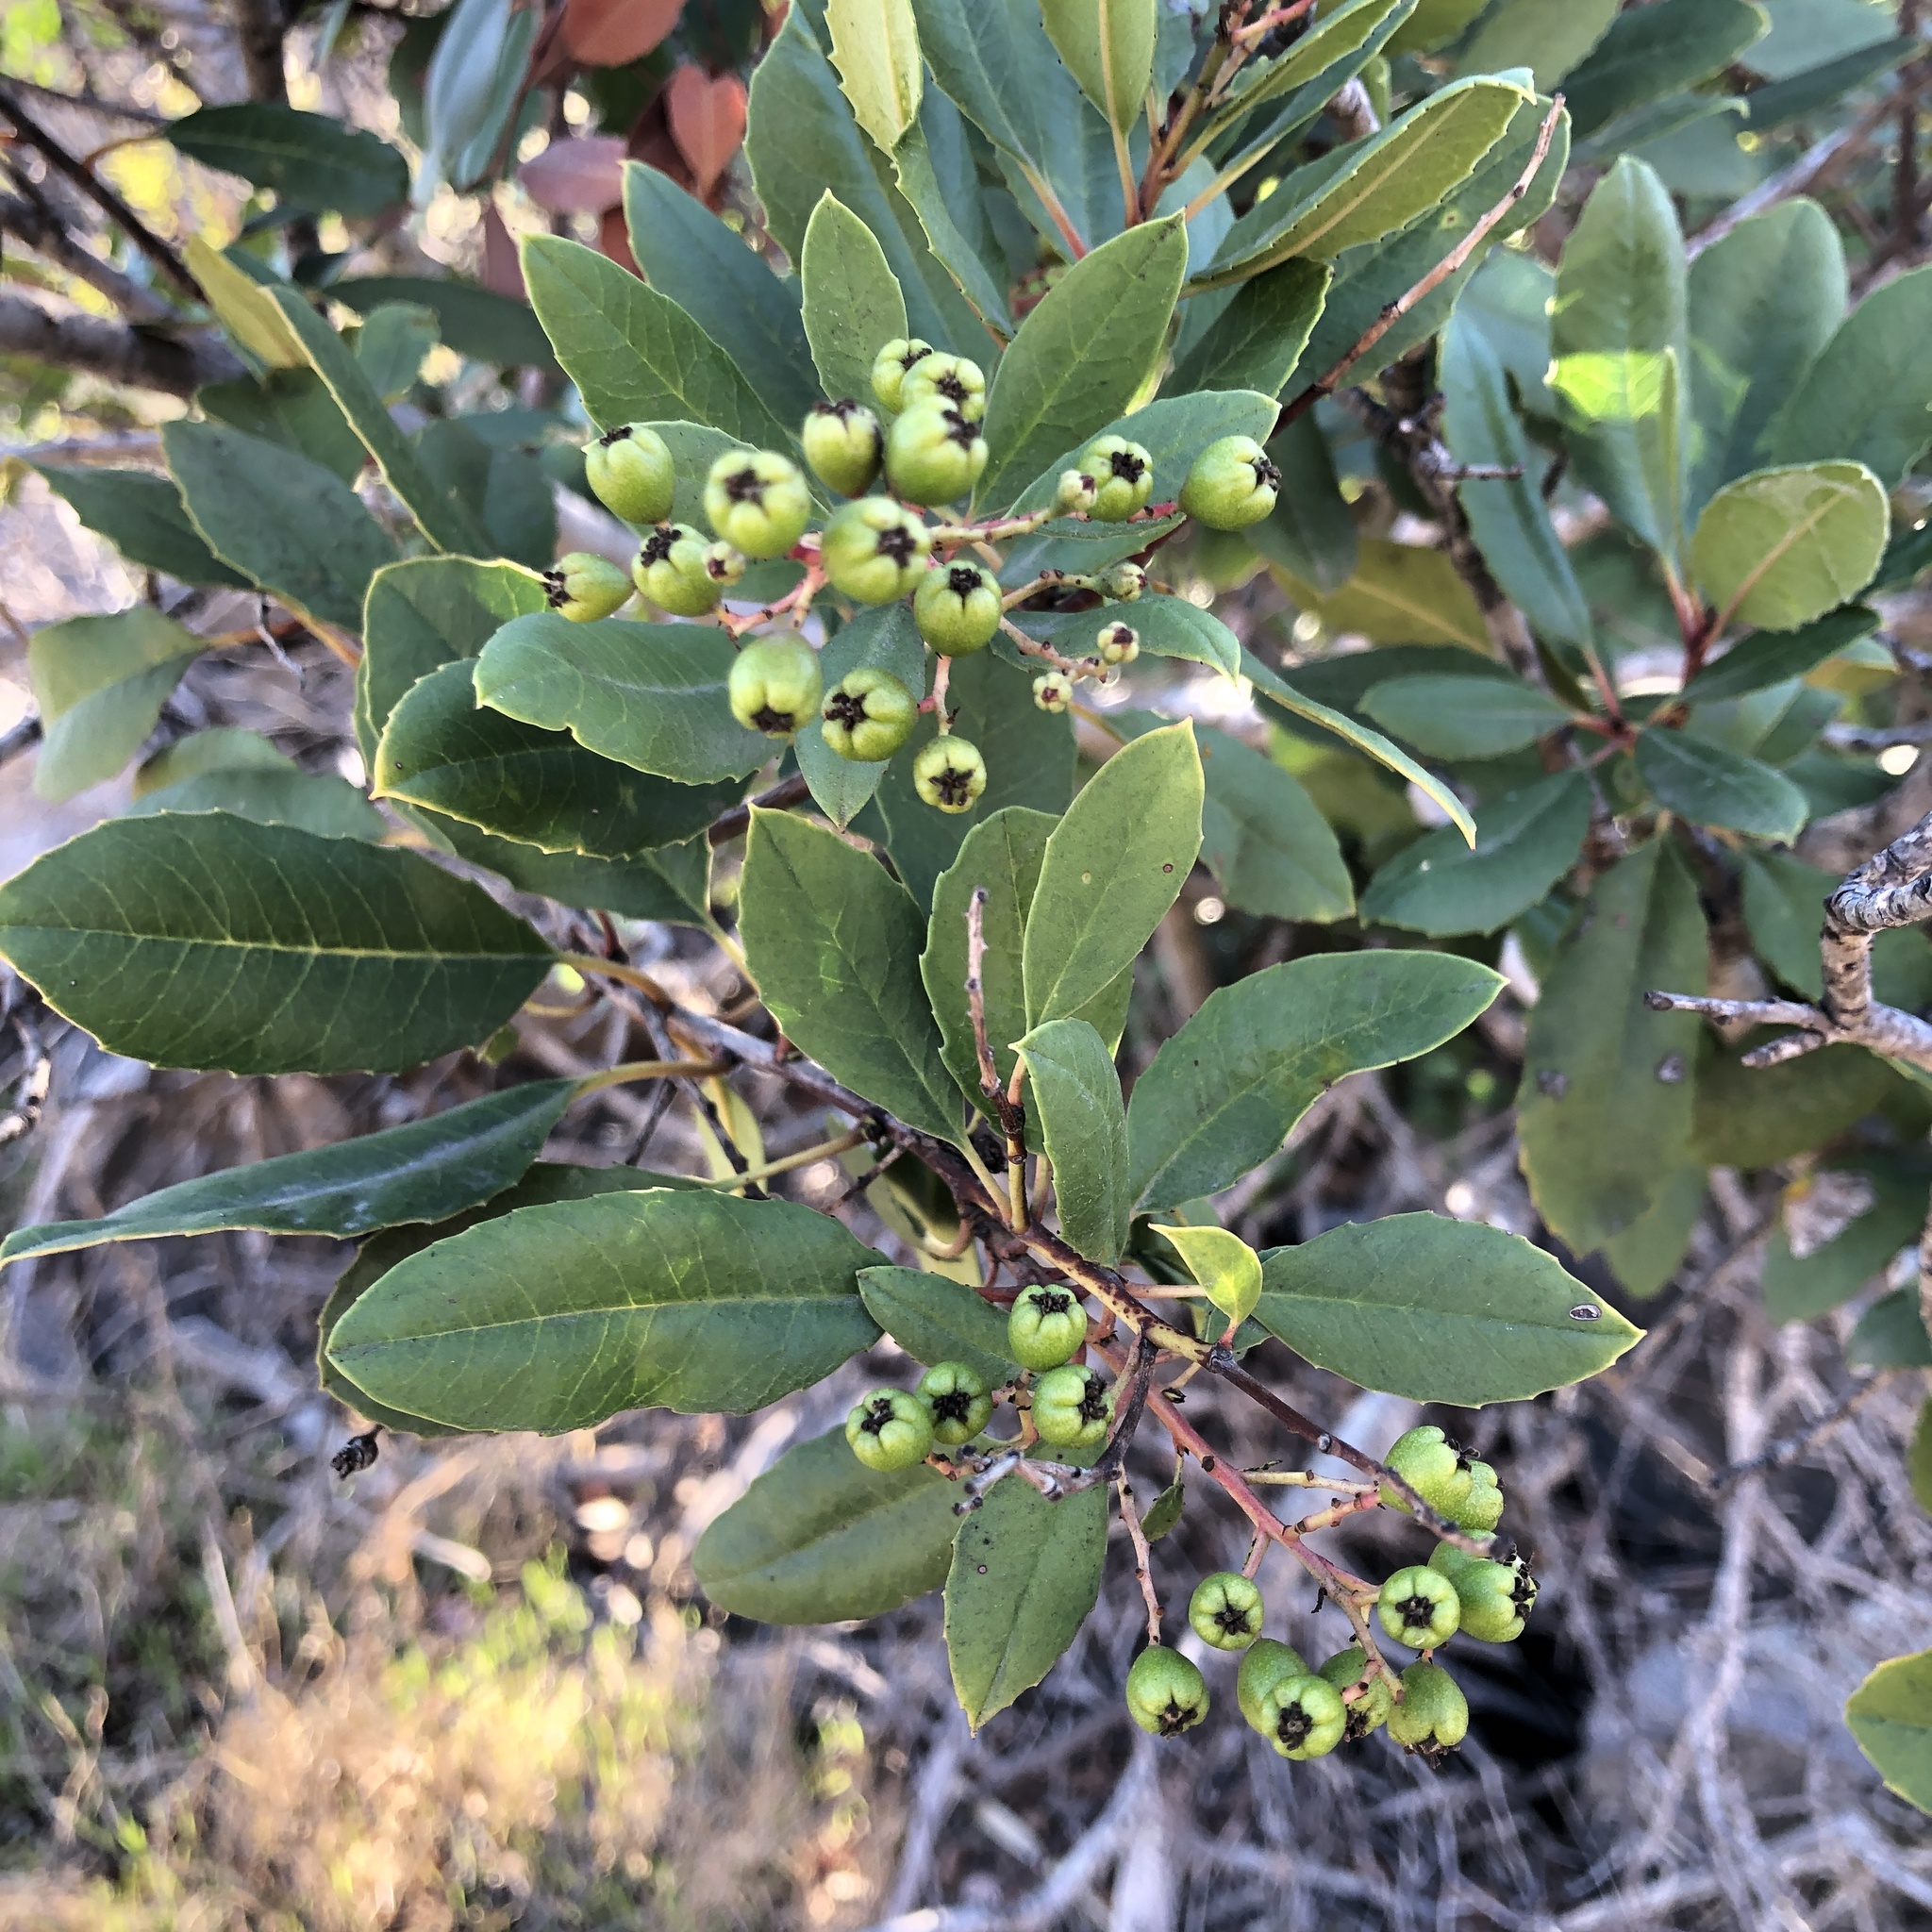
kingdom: Plantae
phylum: Tracheophyta
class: Magnoliopsida
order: Rosales
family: Rosaceae
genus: Heteromeles
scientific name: Heteromeles arbutifolia
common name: California-holly
